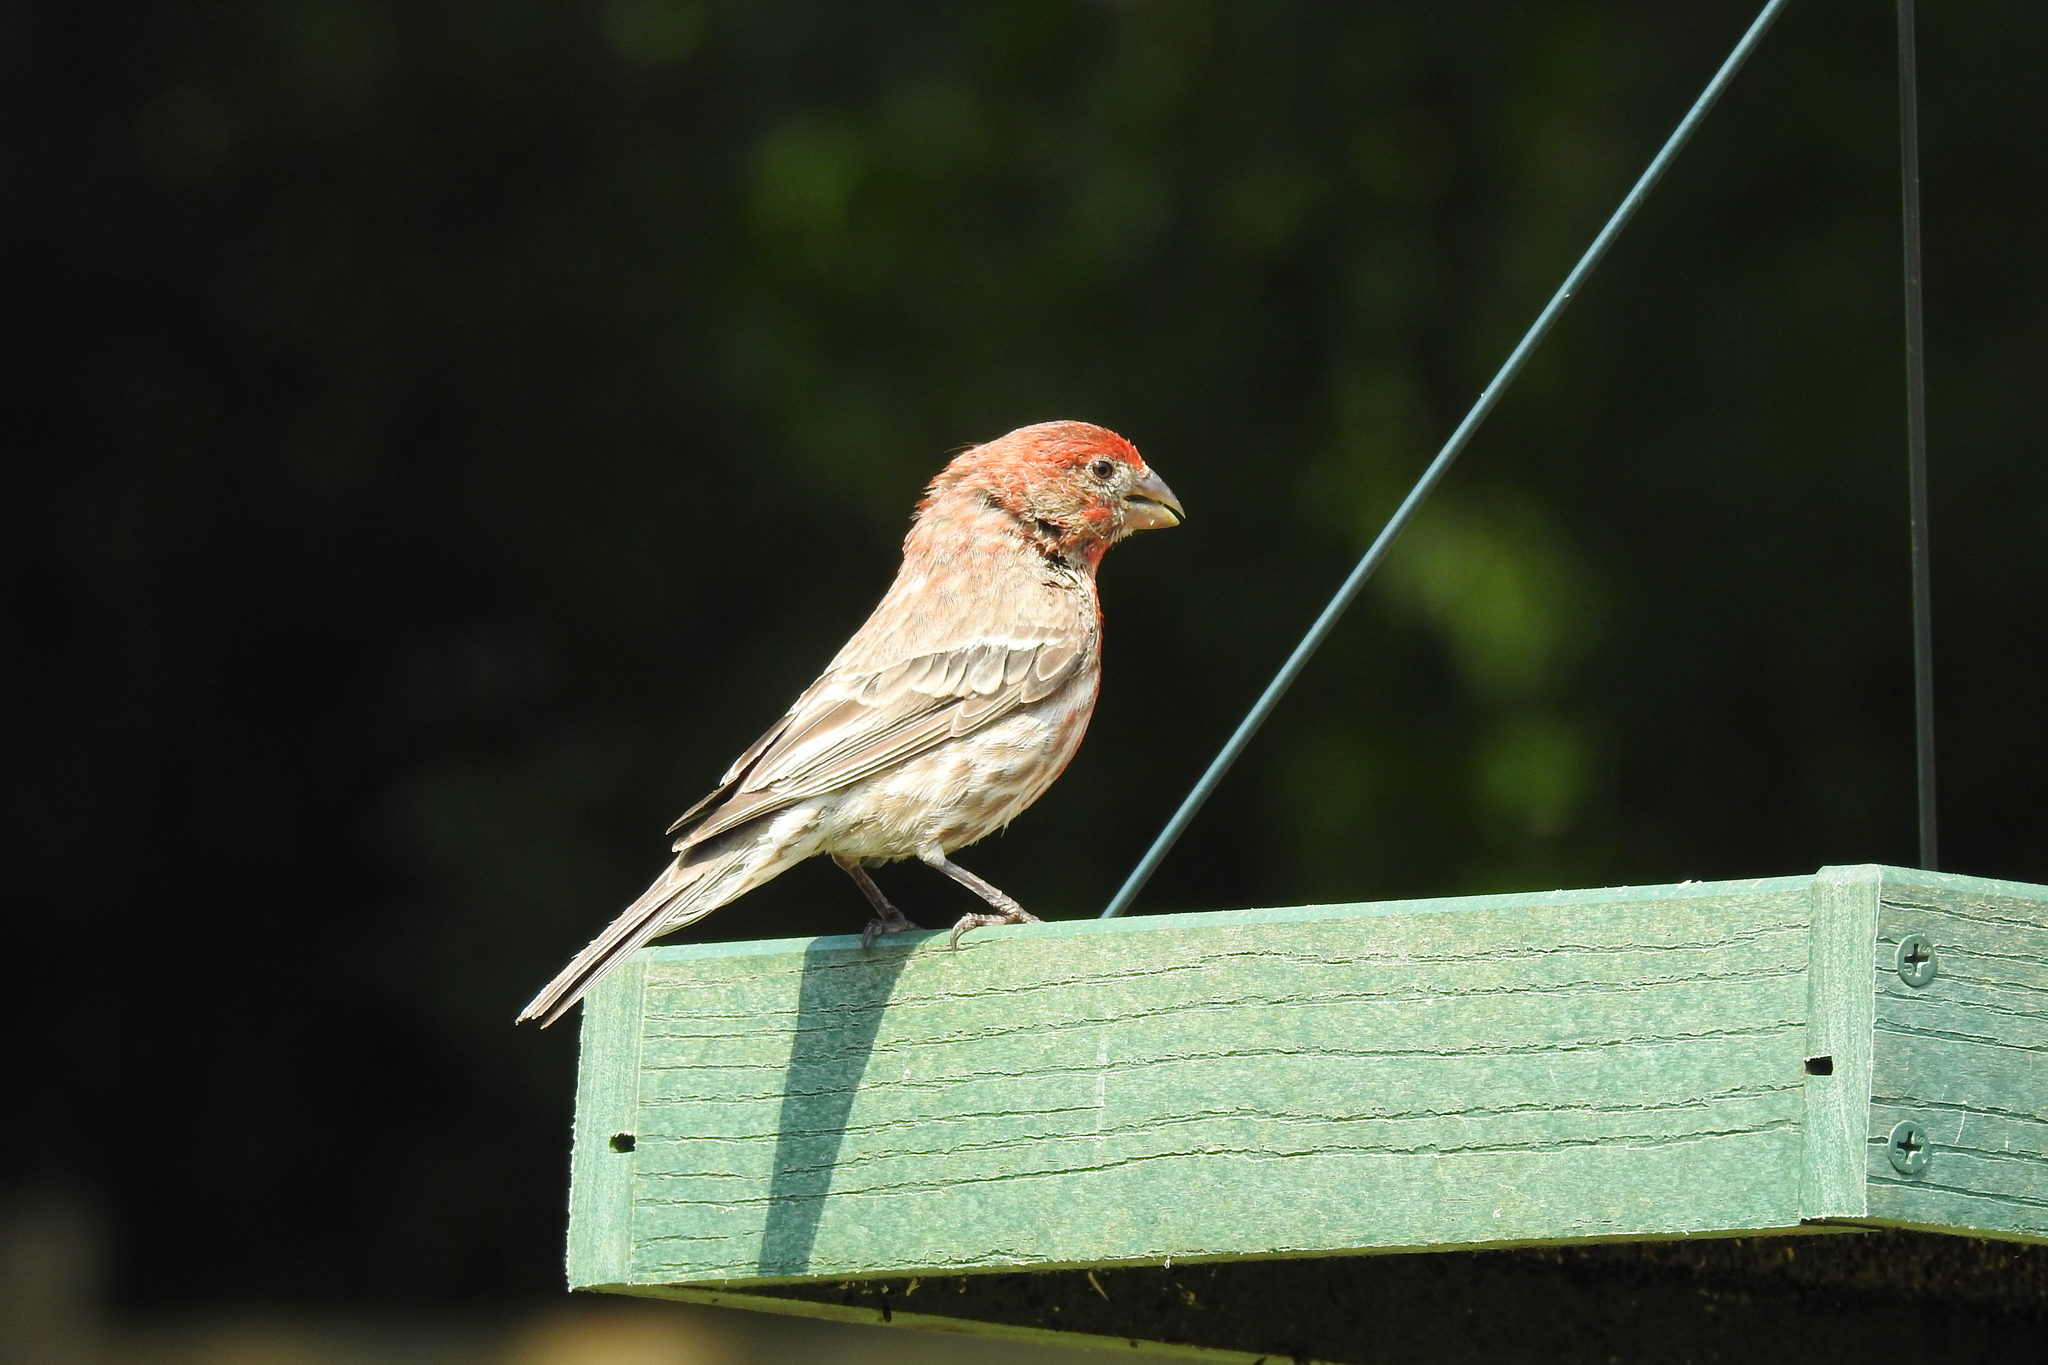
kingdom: Animalia
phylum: Chordata
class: Aves
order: Passeriformes
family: Fringillidae
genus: Haemorhous
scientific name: Haemorhous mexicanus
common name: House finch
